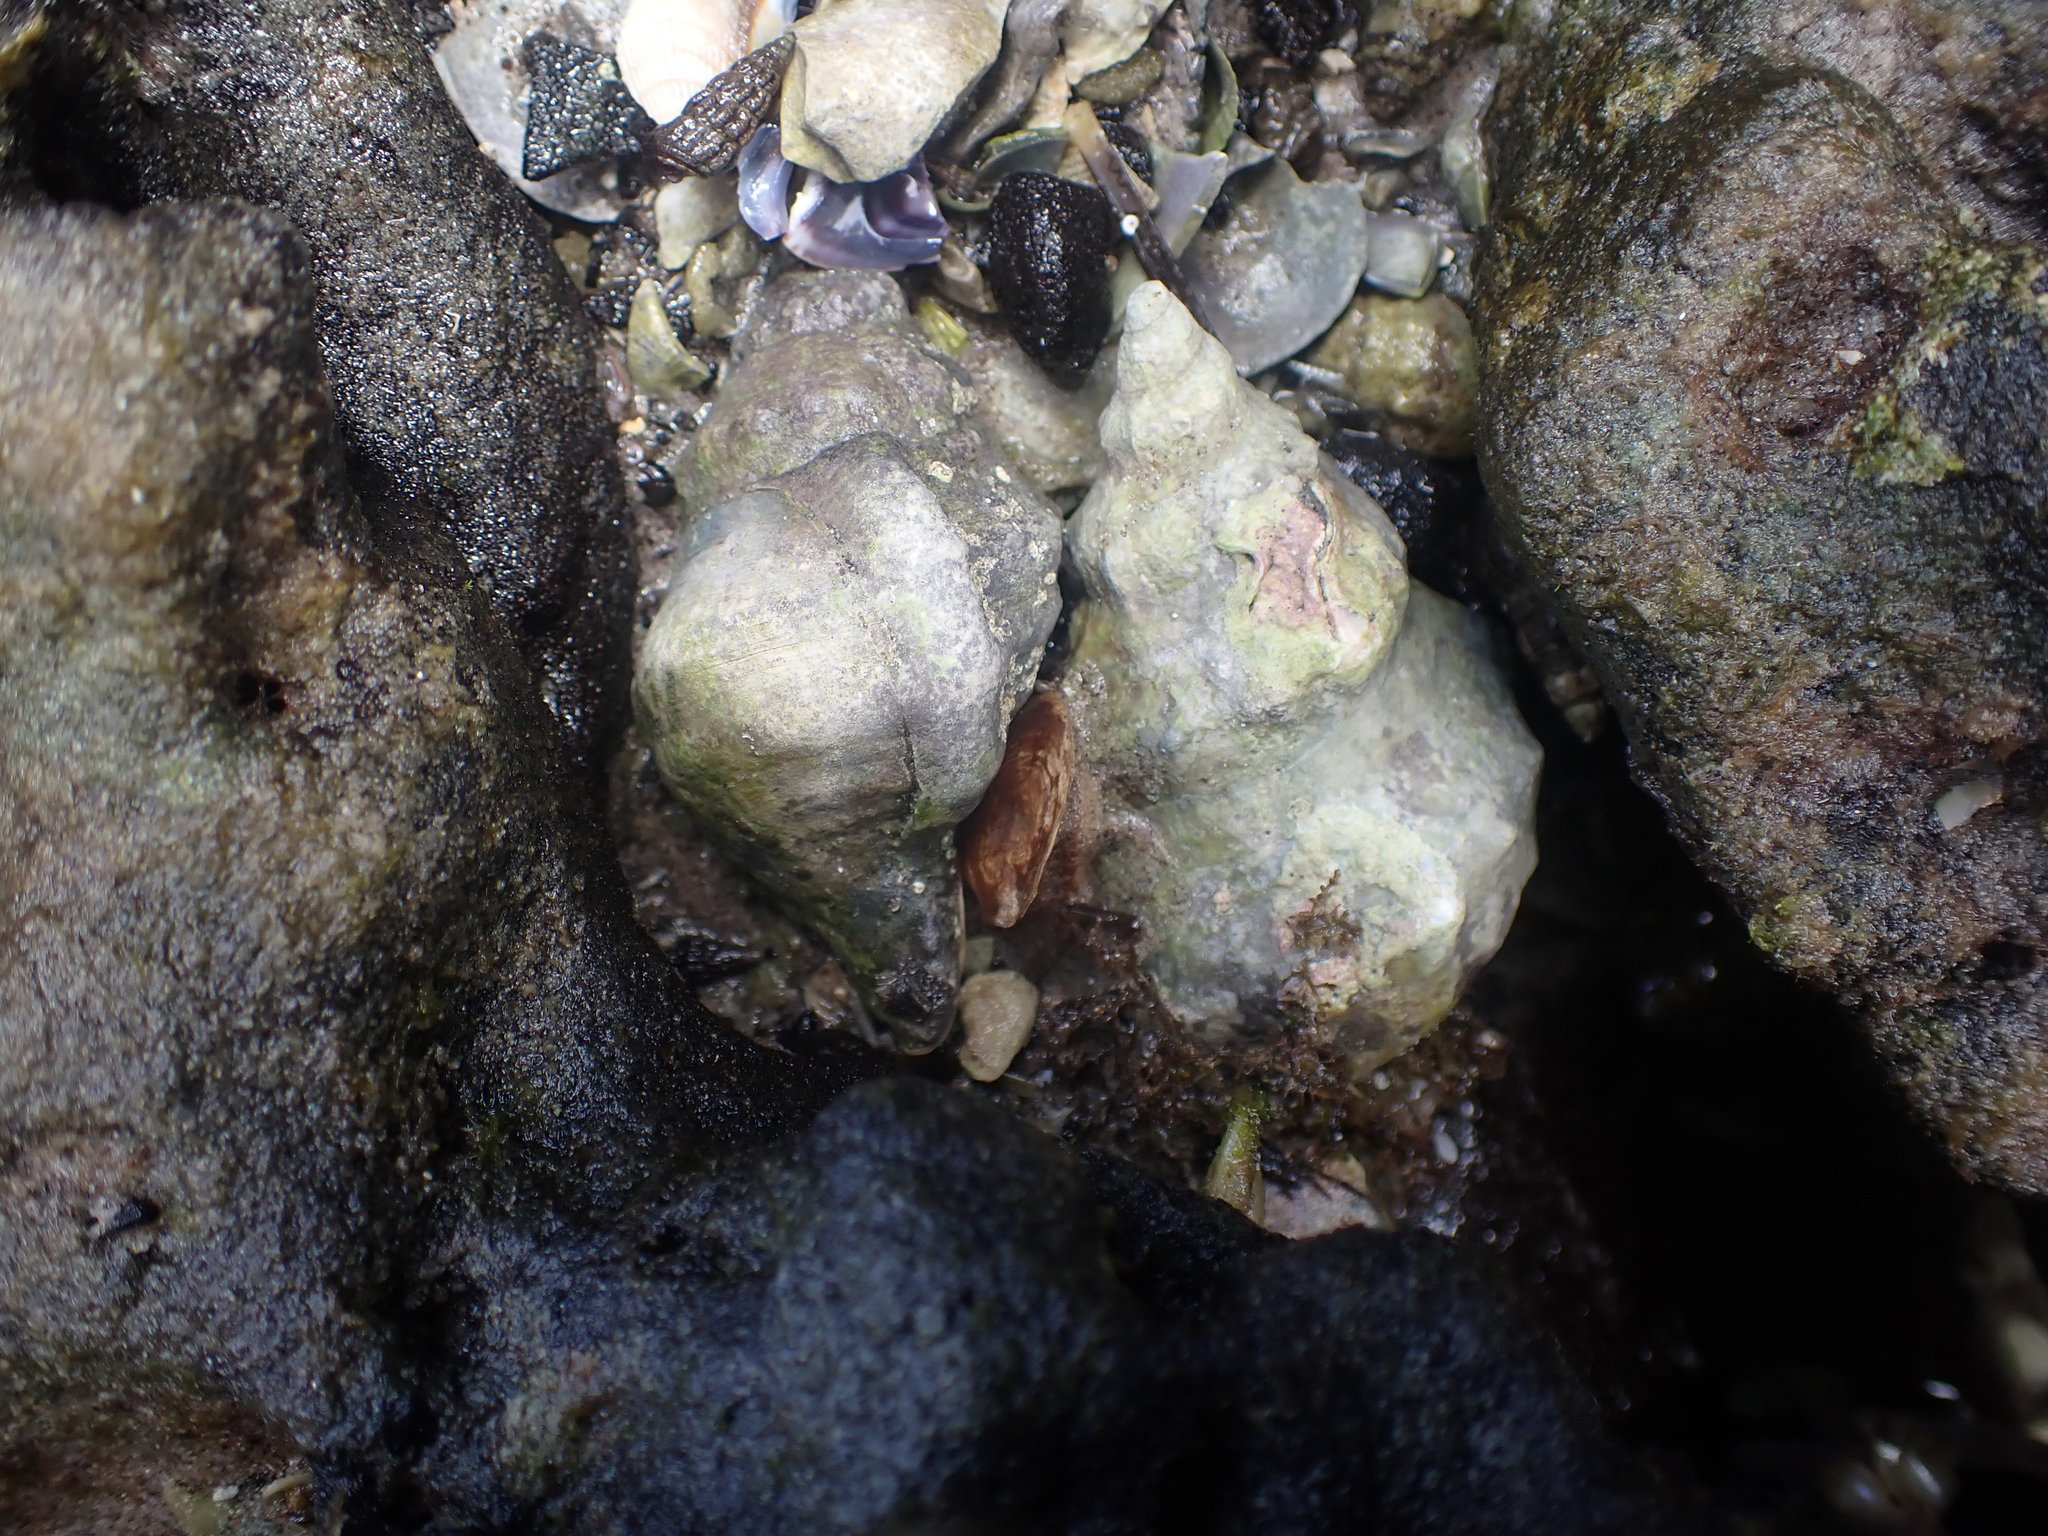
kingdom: Animalia
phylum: Mollusca
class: Gastropoda
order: Littorinimorpha
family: Ranellidae
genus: Ranella
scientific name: Ranella australasia
